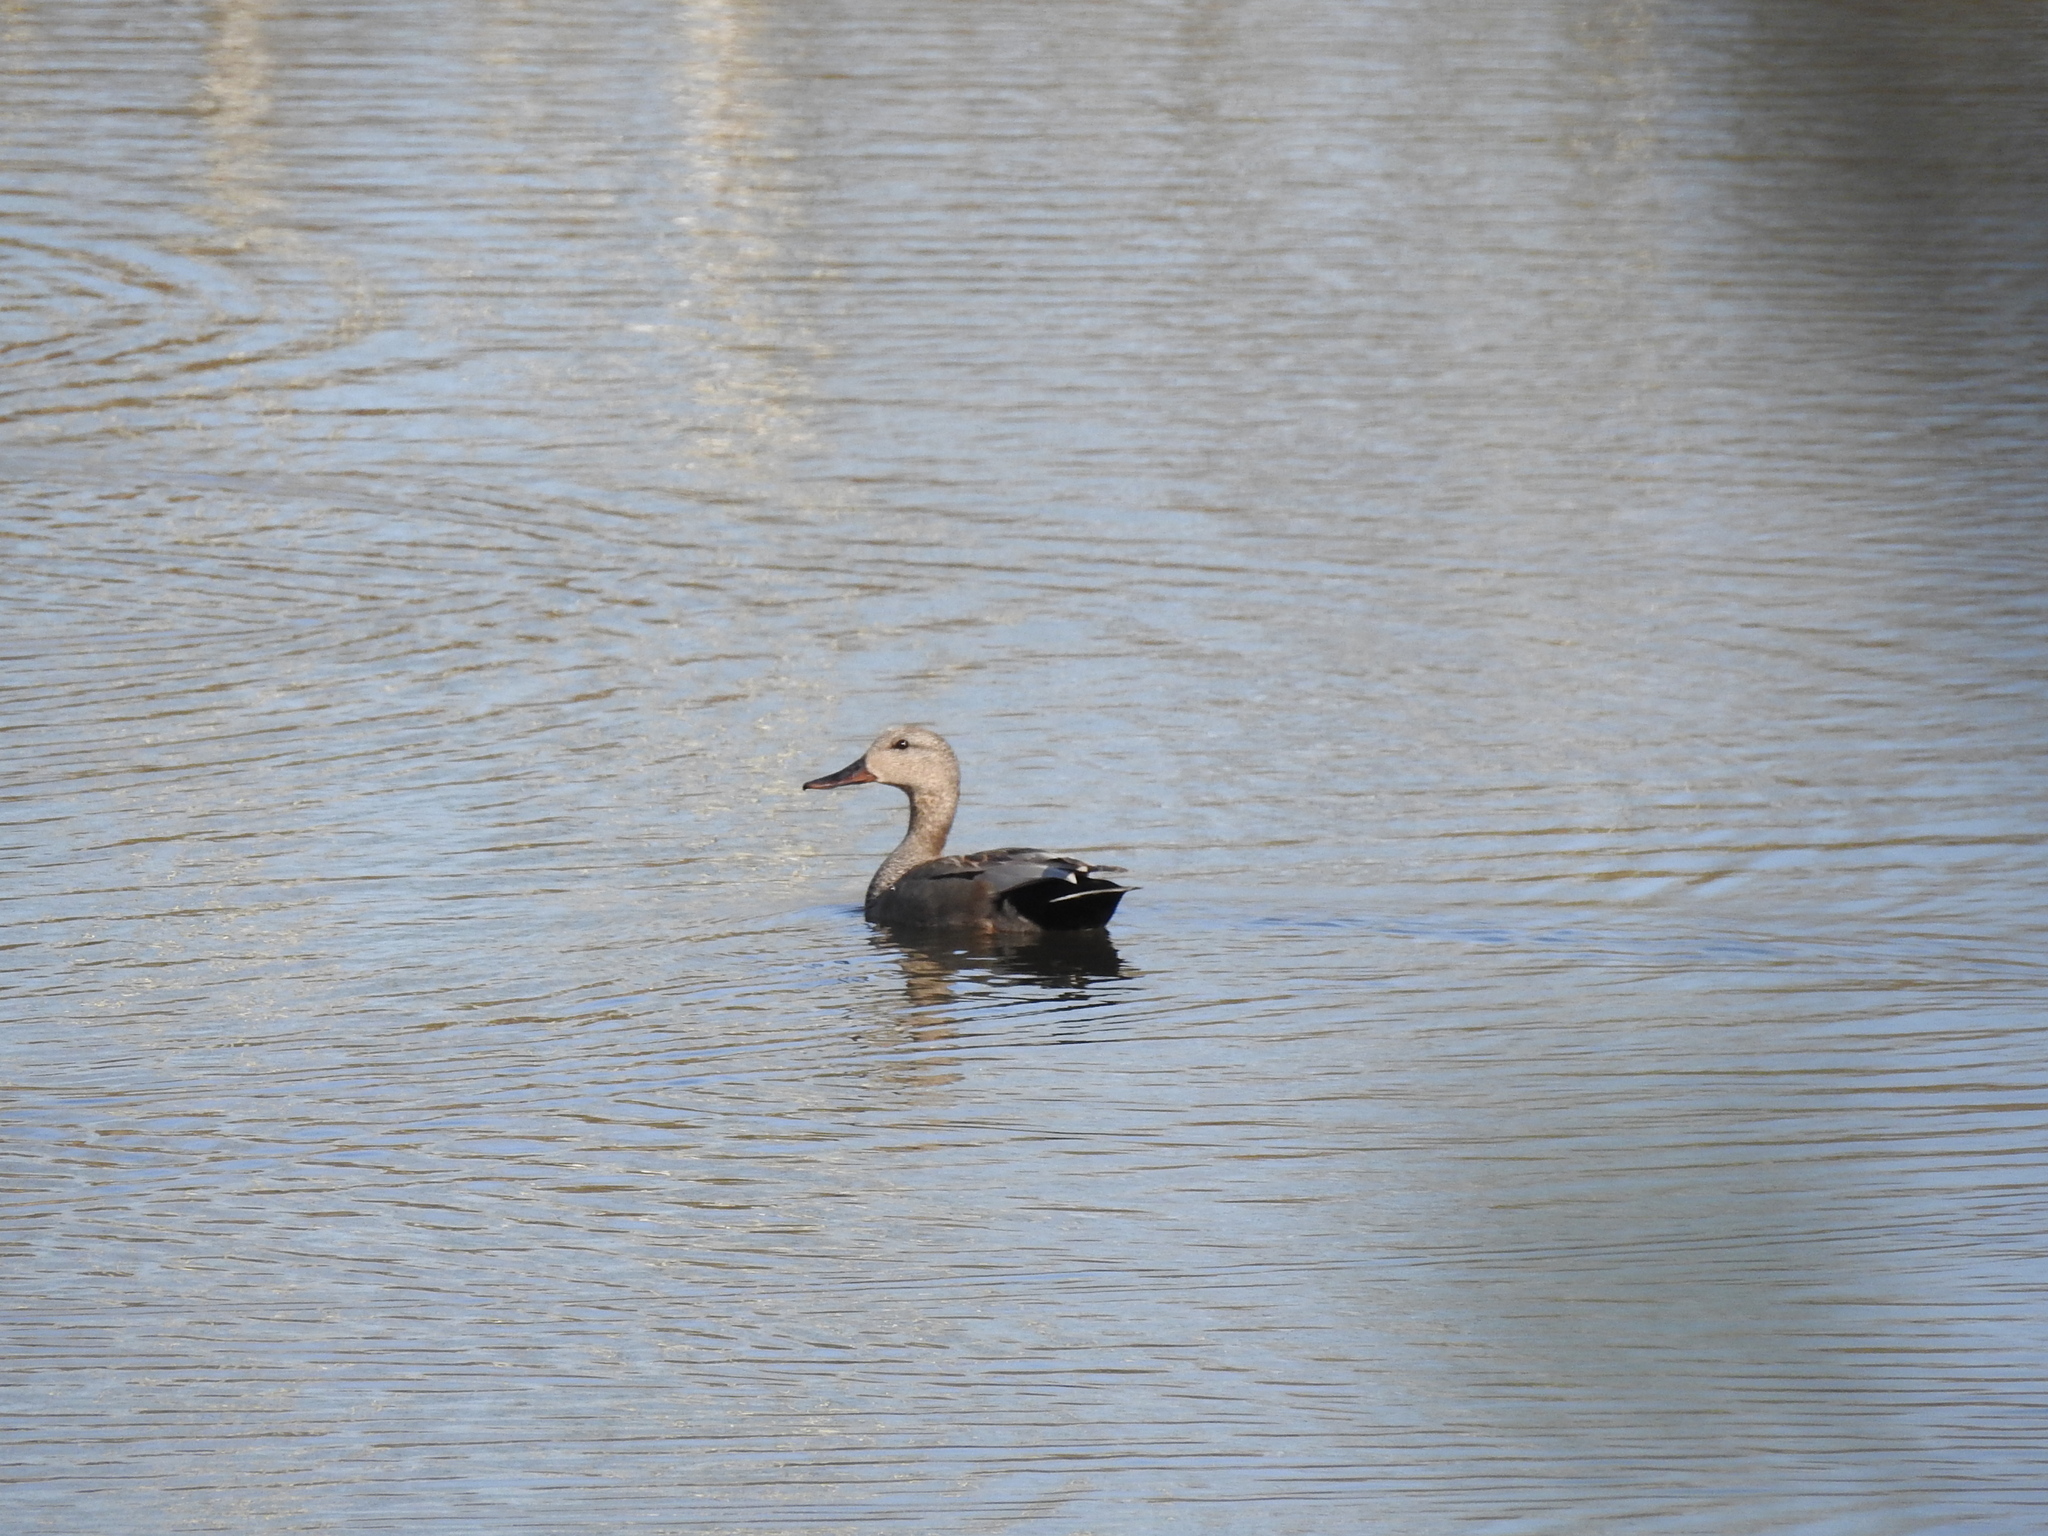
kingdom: Animalia
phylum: Chordata
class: Aves
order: Anseriformes
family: Anatidae
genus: Mareca
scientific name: Mareca strepera
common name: Gadwall
